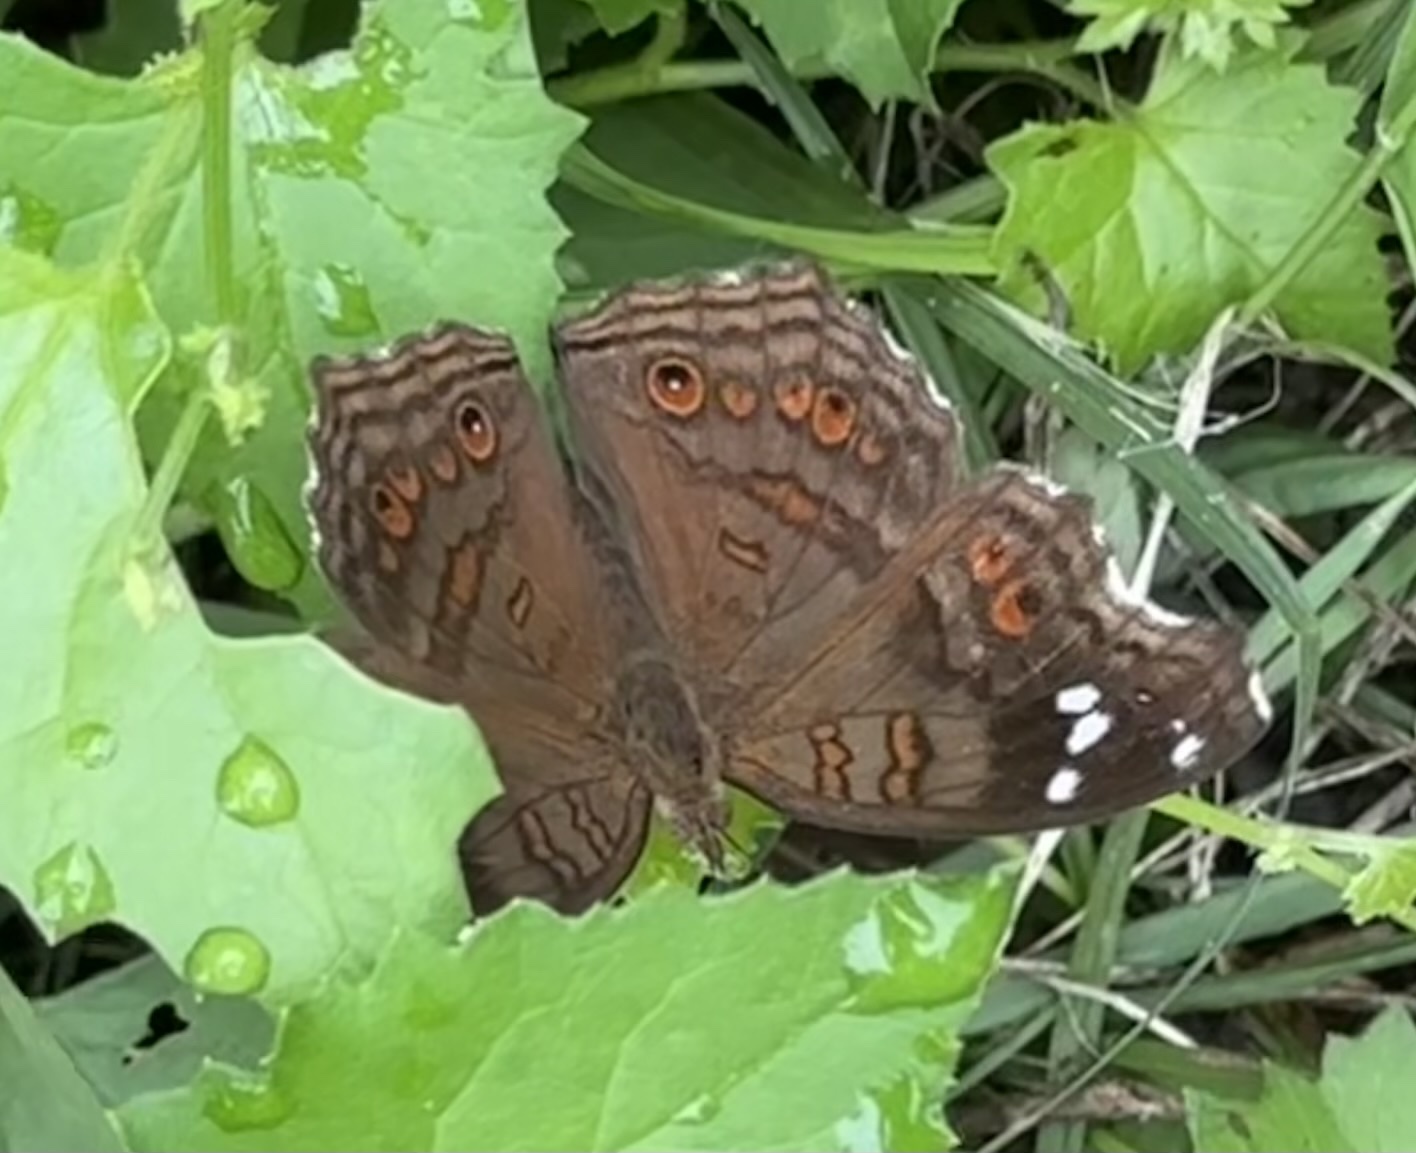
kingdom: Animalia
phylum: Arthropoda
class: Insecta
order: Lepidoptera
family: Nymphalidae
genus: Junonia
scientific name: Junonia natalica
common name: Brown pansy
